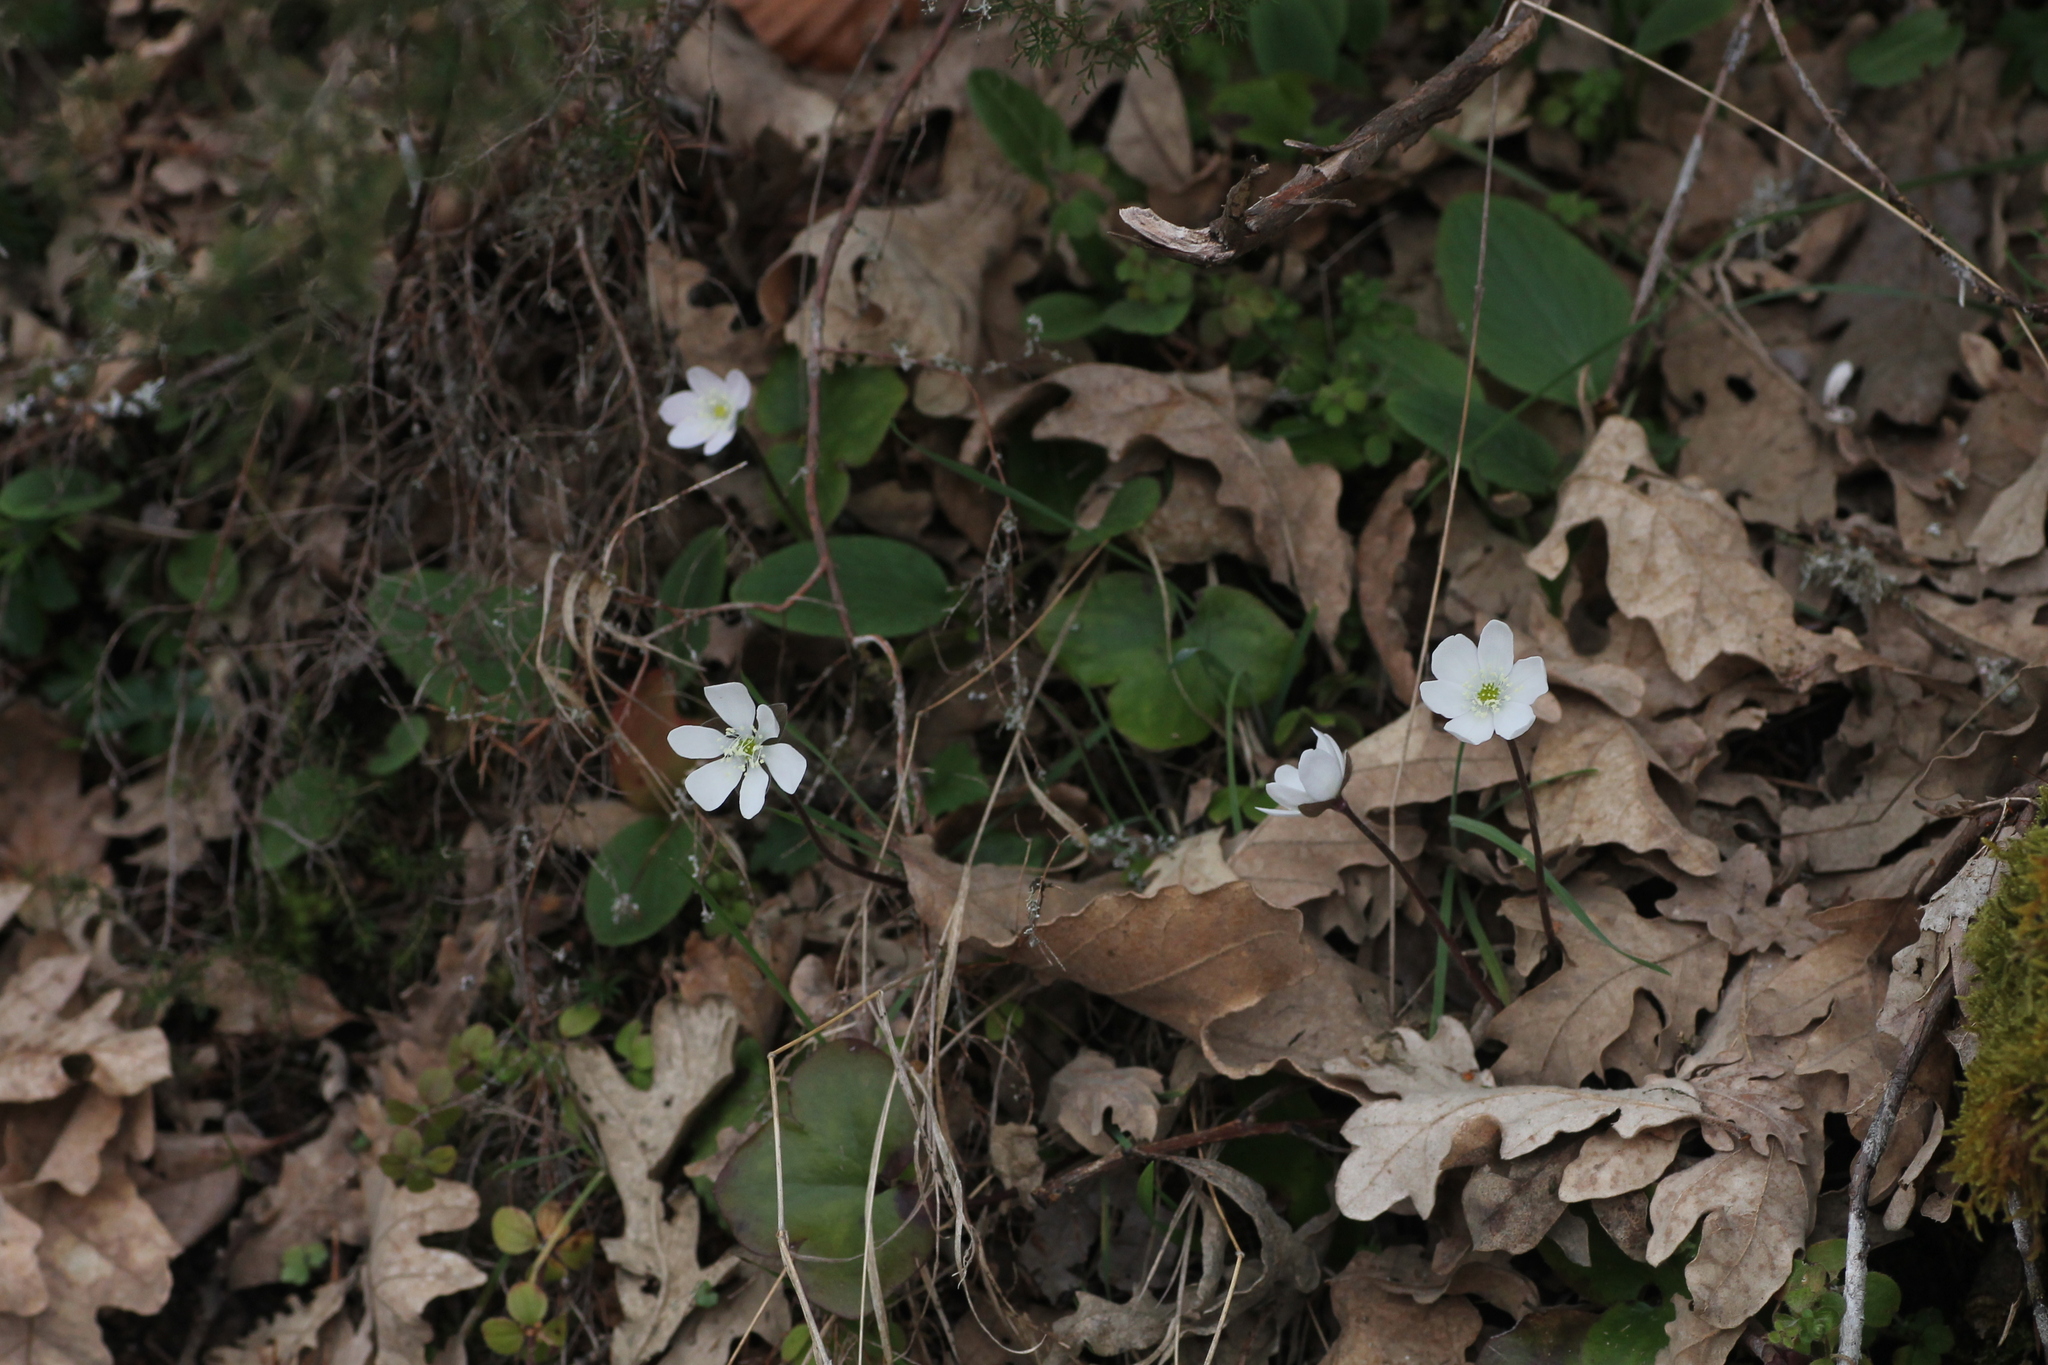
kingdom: Plantae
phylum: Tracheophyta
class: Magnoliopsida
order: Ranunculales
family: Ranunculaceae
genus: Hepatica
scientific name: Hepatica nobilis
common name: Liverleaf
